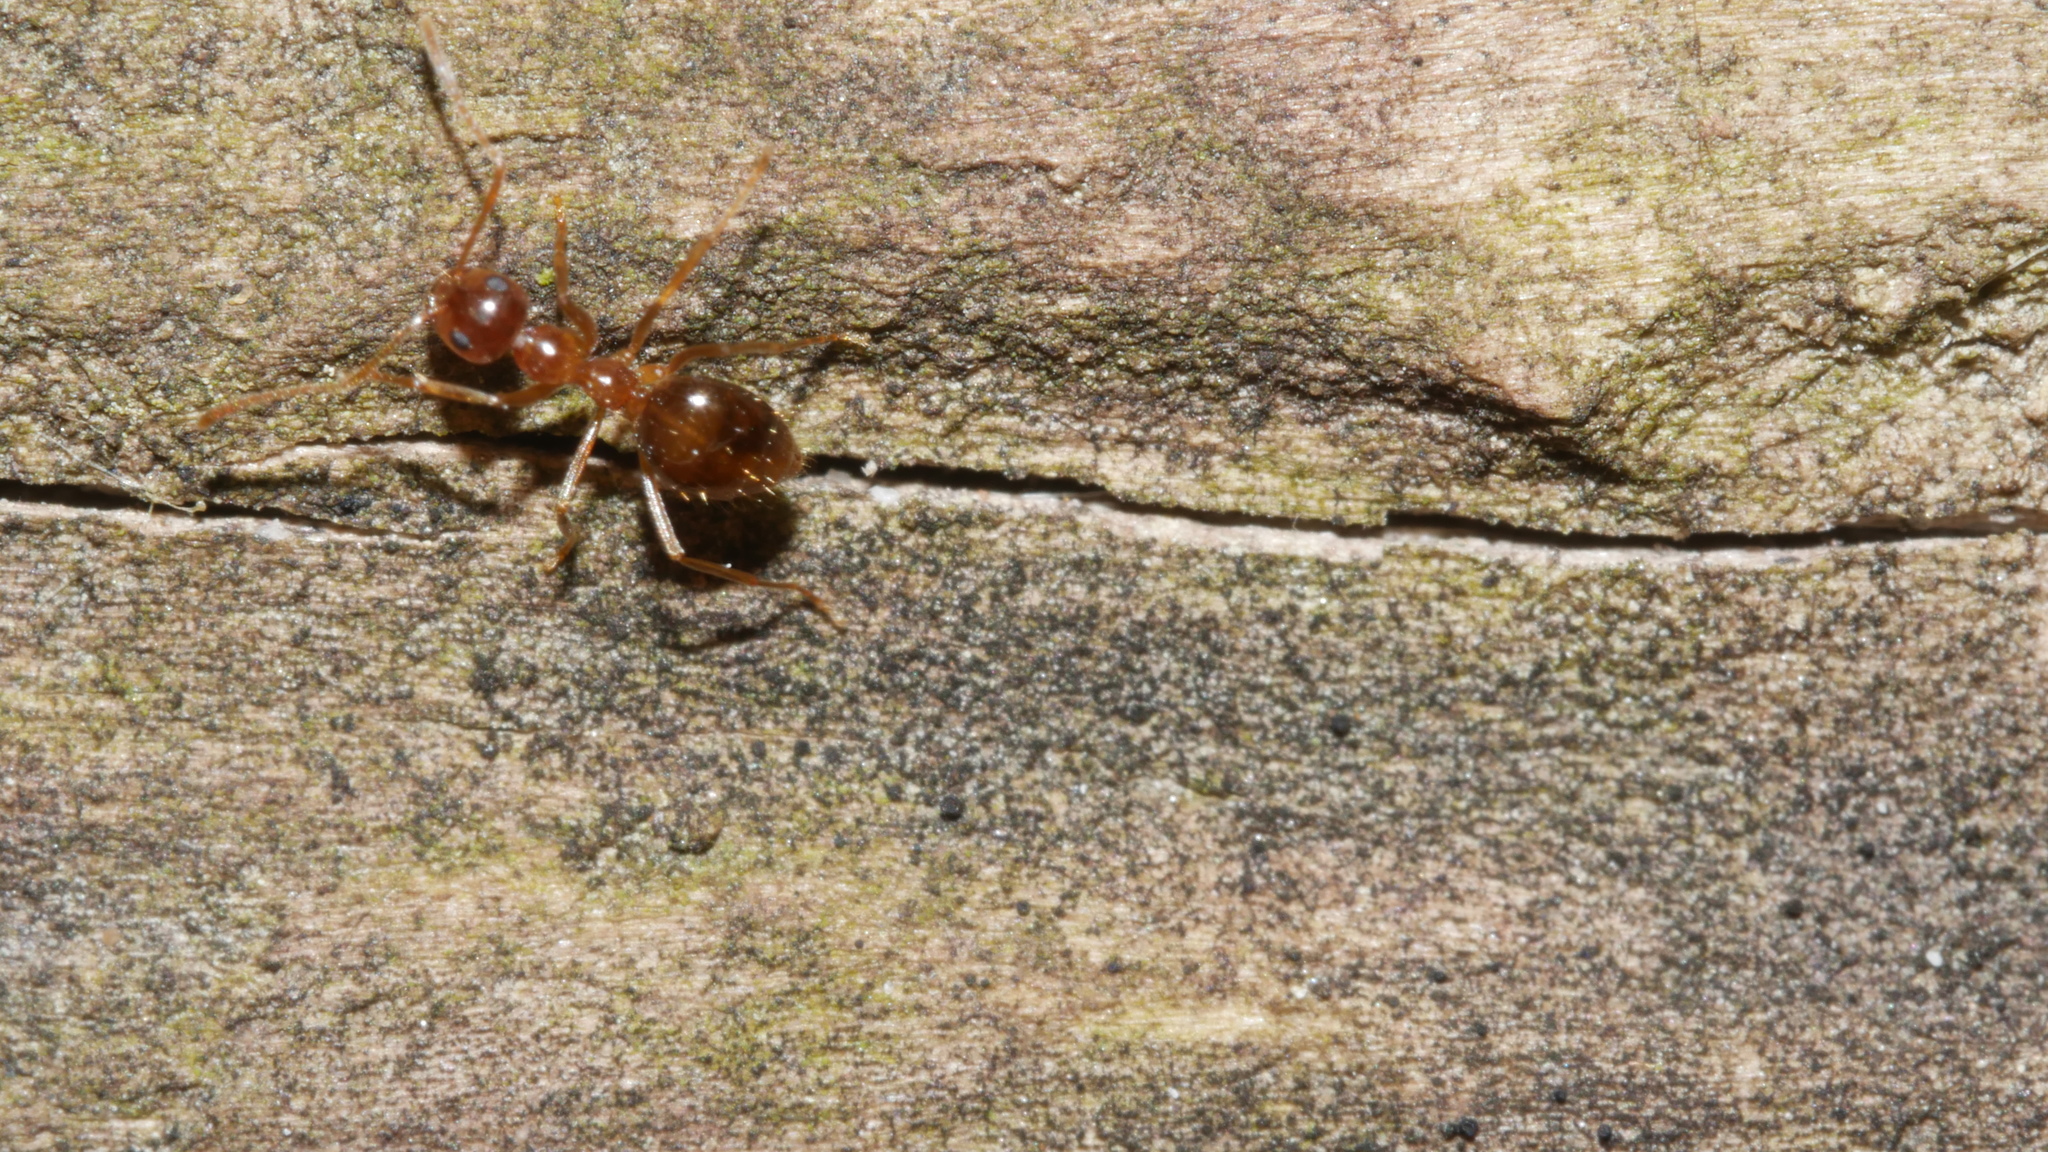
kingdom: Animalia
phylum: Arthropoda
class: Insecta
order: Hymenoptera
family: Formicidae
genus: Prenolepis
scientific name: Prenolepis imparis
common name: Small honey ant
